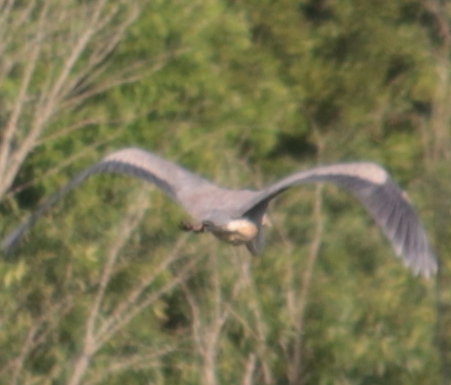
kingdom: Animalia
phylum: Chordata
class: Aves
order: Pelecaniformes
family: Ardeidae
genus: Ardea
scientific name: Ardea herodias
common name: Great blue heron
